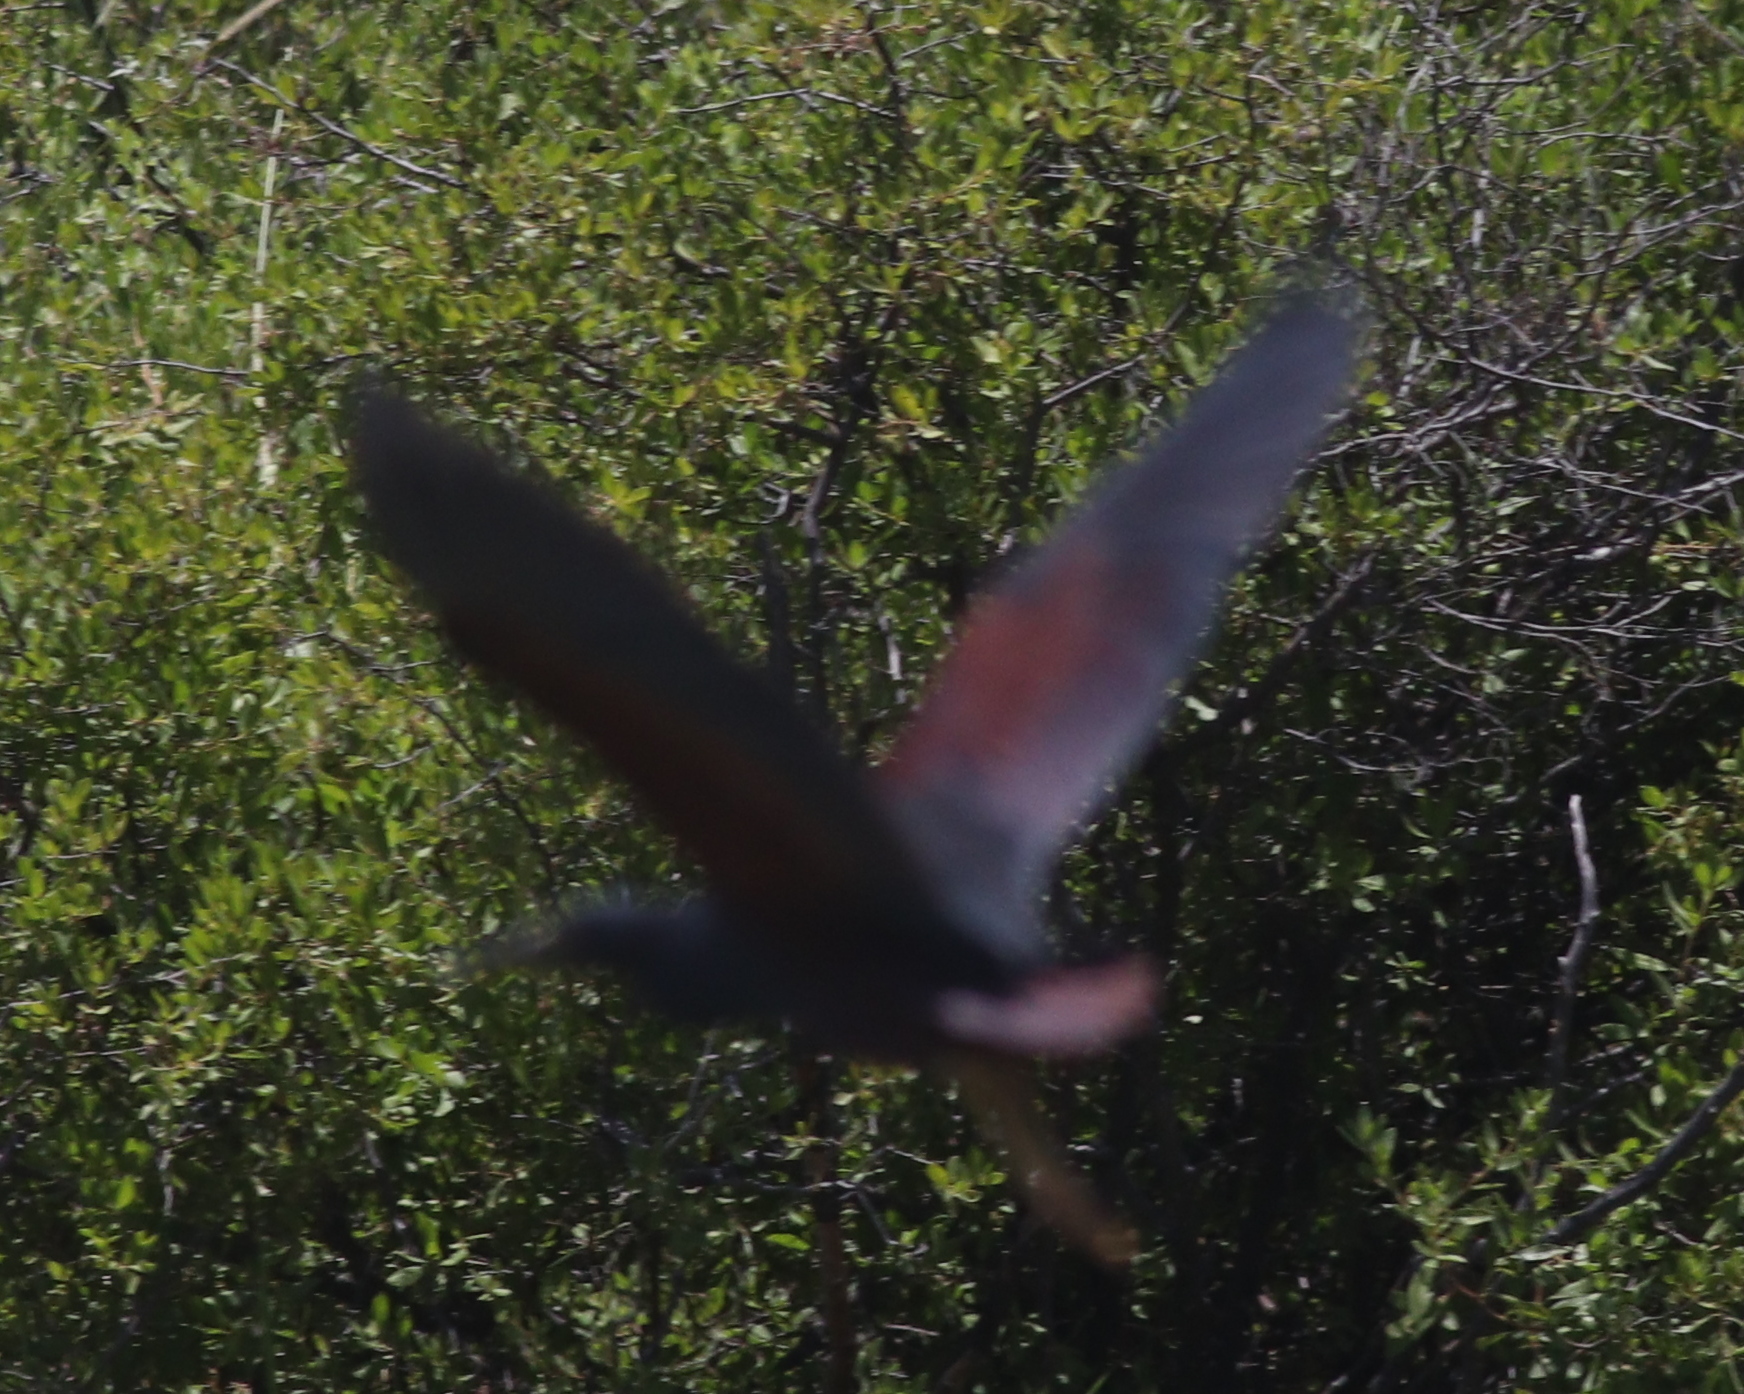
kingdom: Animalia
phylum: Chordata
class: Aves
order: Pelecaniformes
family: Ardeidae
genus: Ardeola
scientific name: Ardeola rufiventris
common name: Rufous-bellied heron
